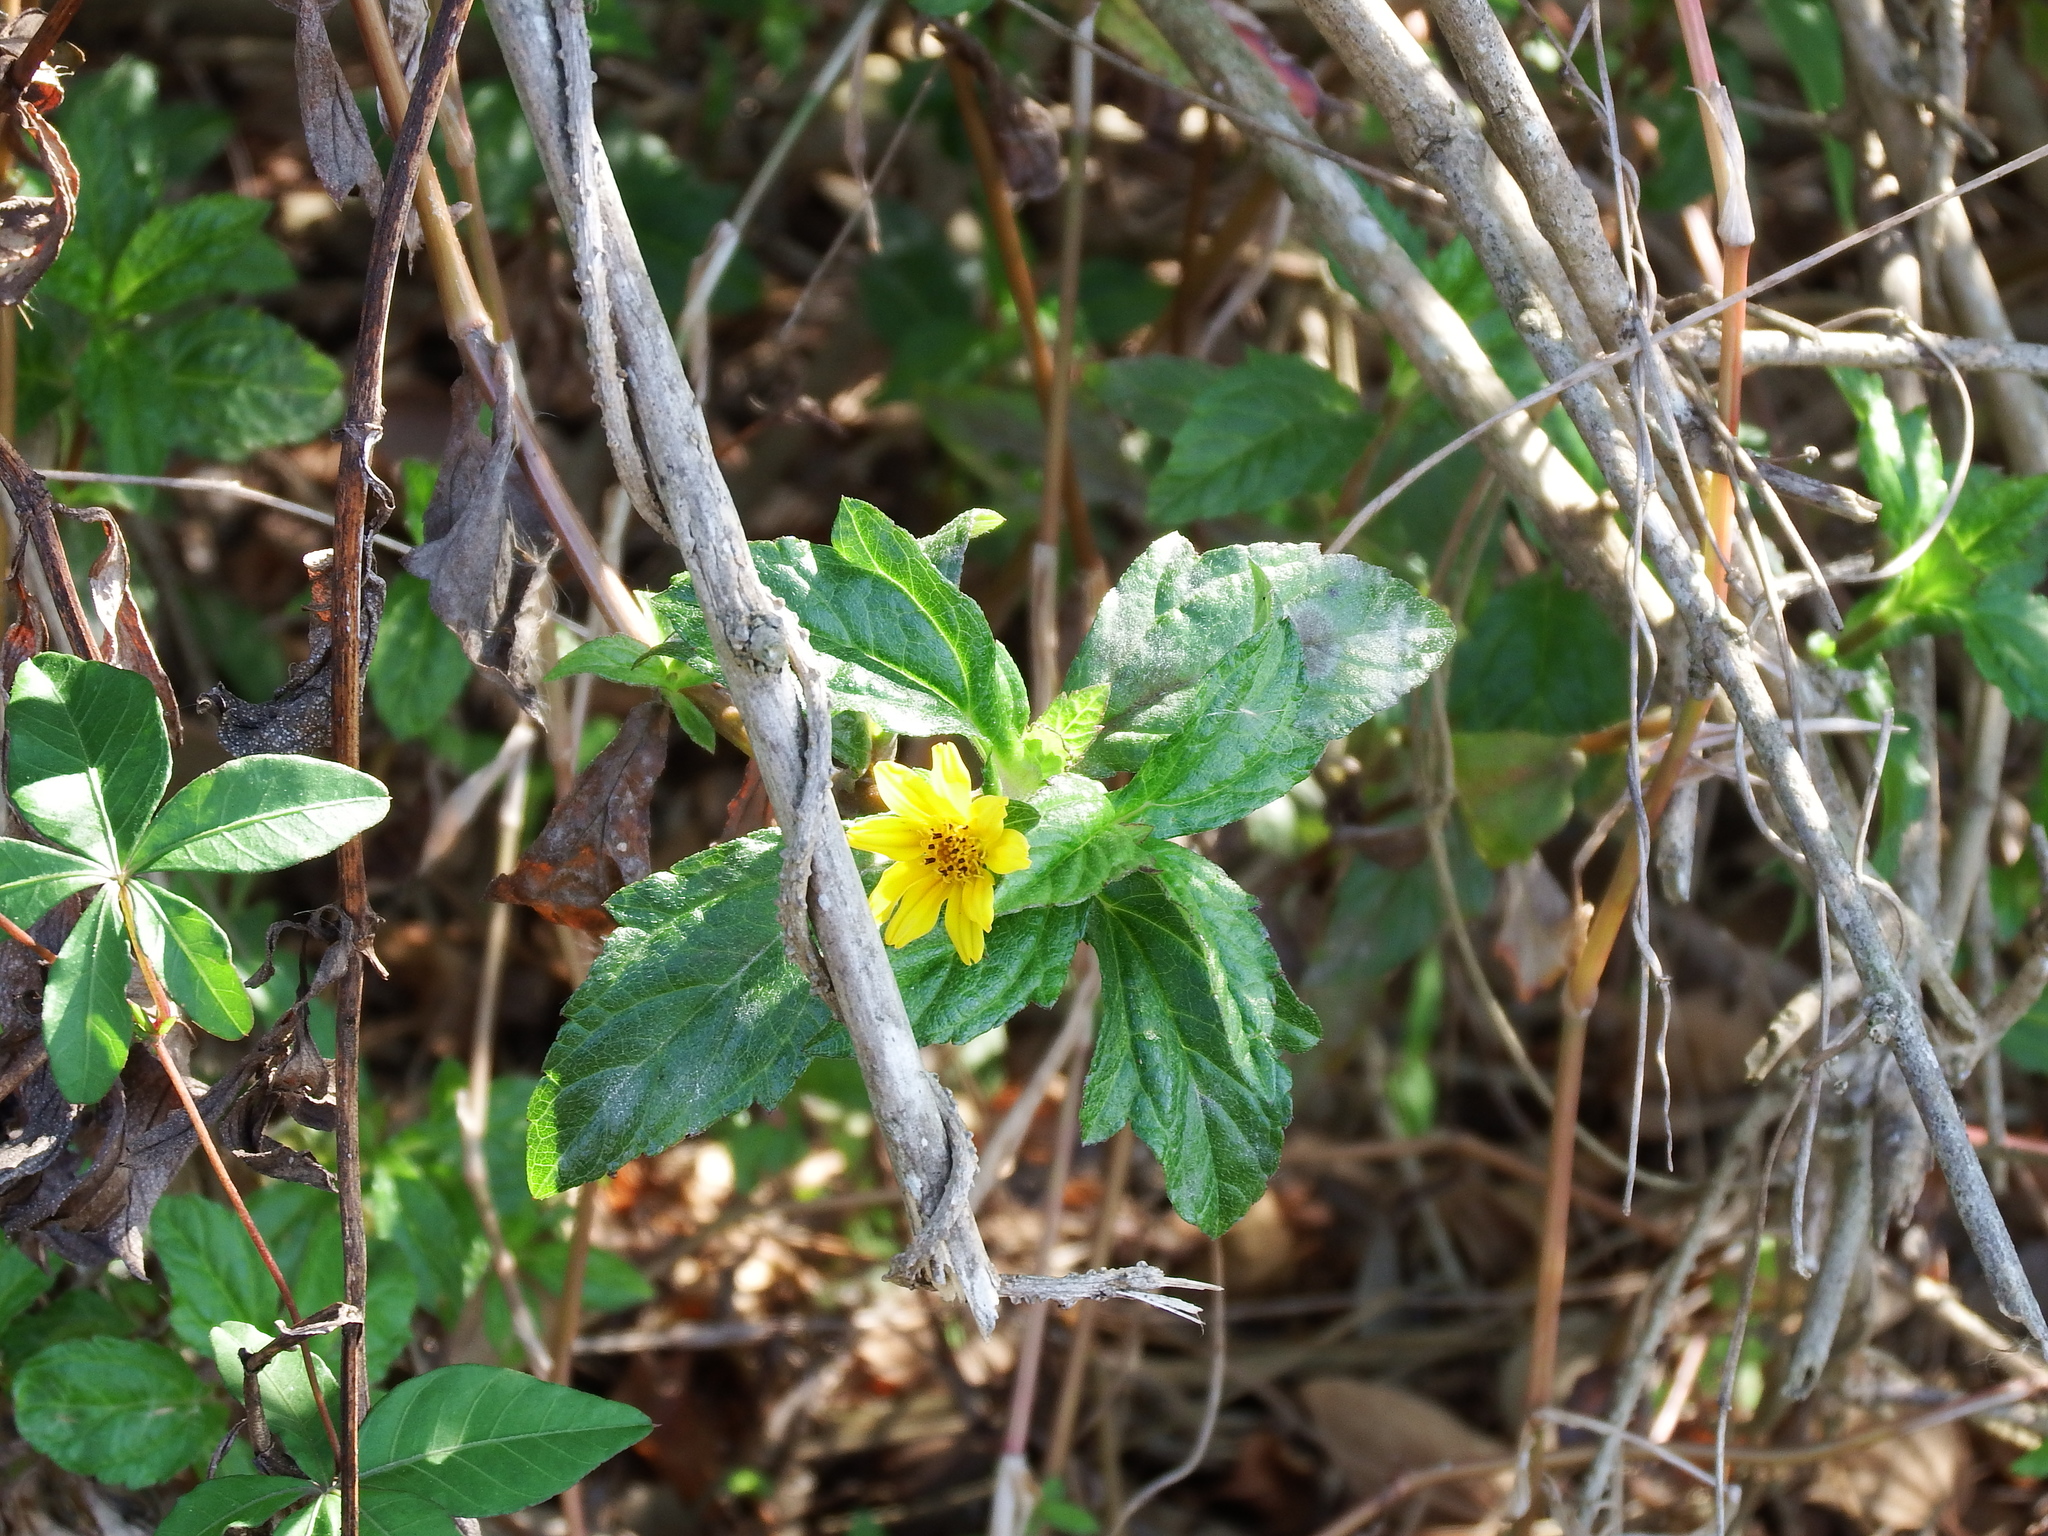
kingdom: Plantae
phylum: Tracheophyta
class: Magnoliopsida
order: Asterales
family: Asteraceae
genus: Sphagneticola
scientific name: Sphagneticola trilobata
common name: Bay biscayne creeping-oxeye
